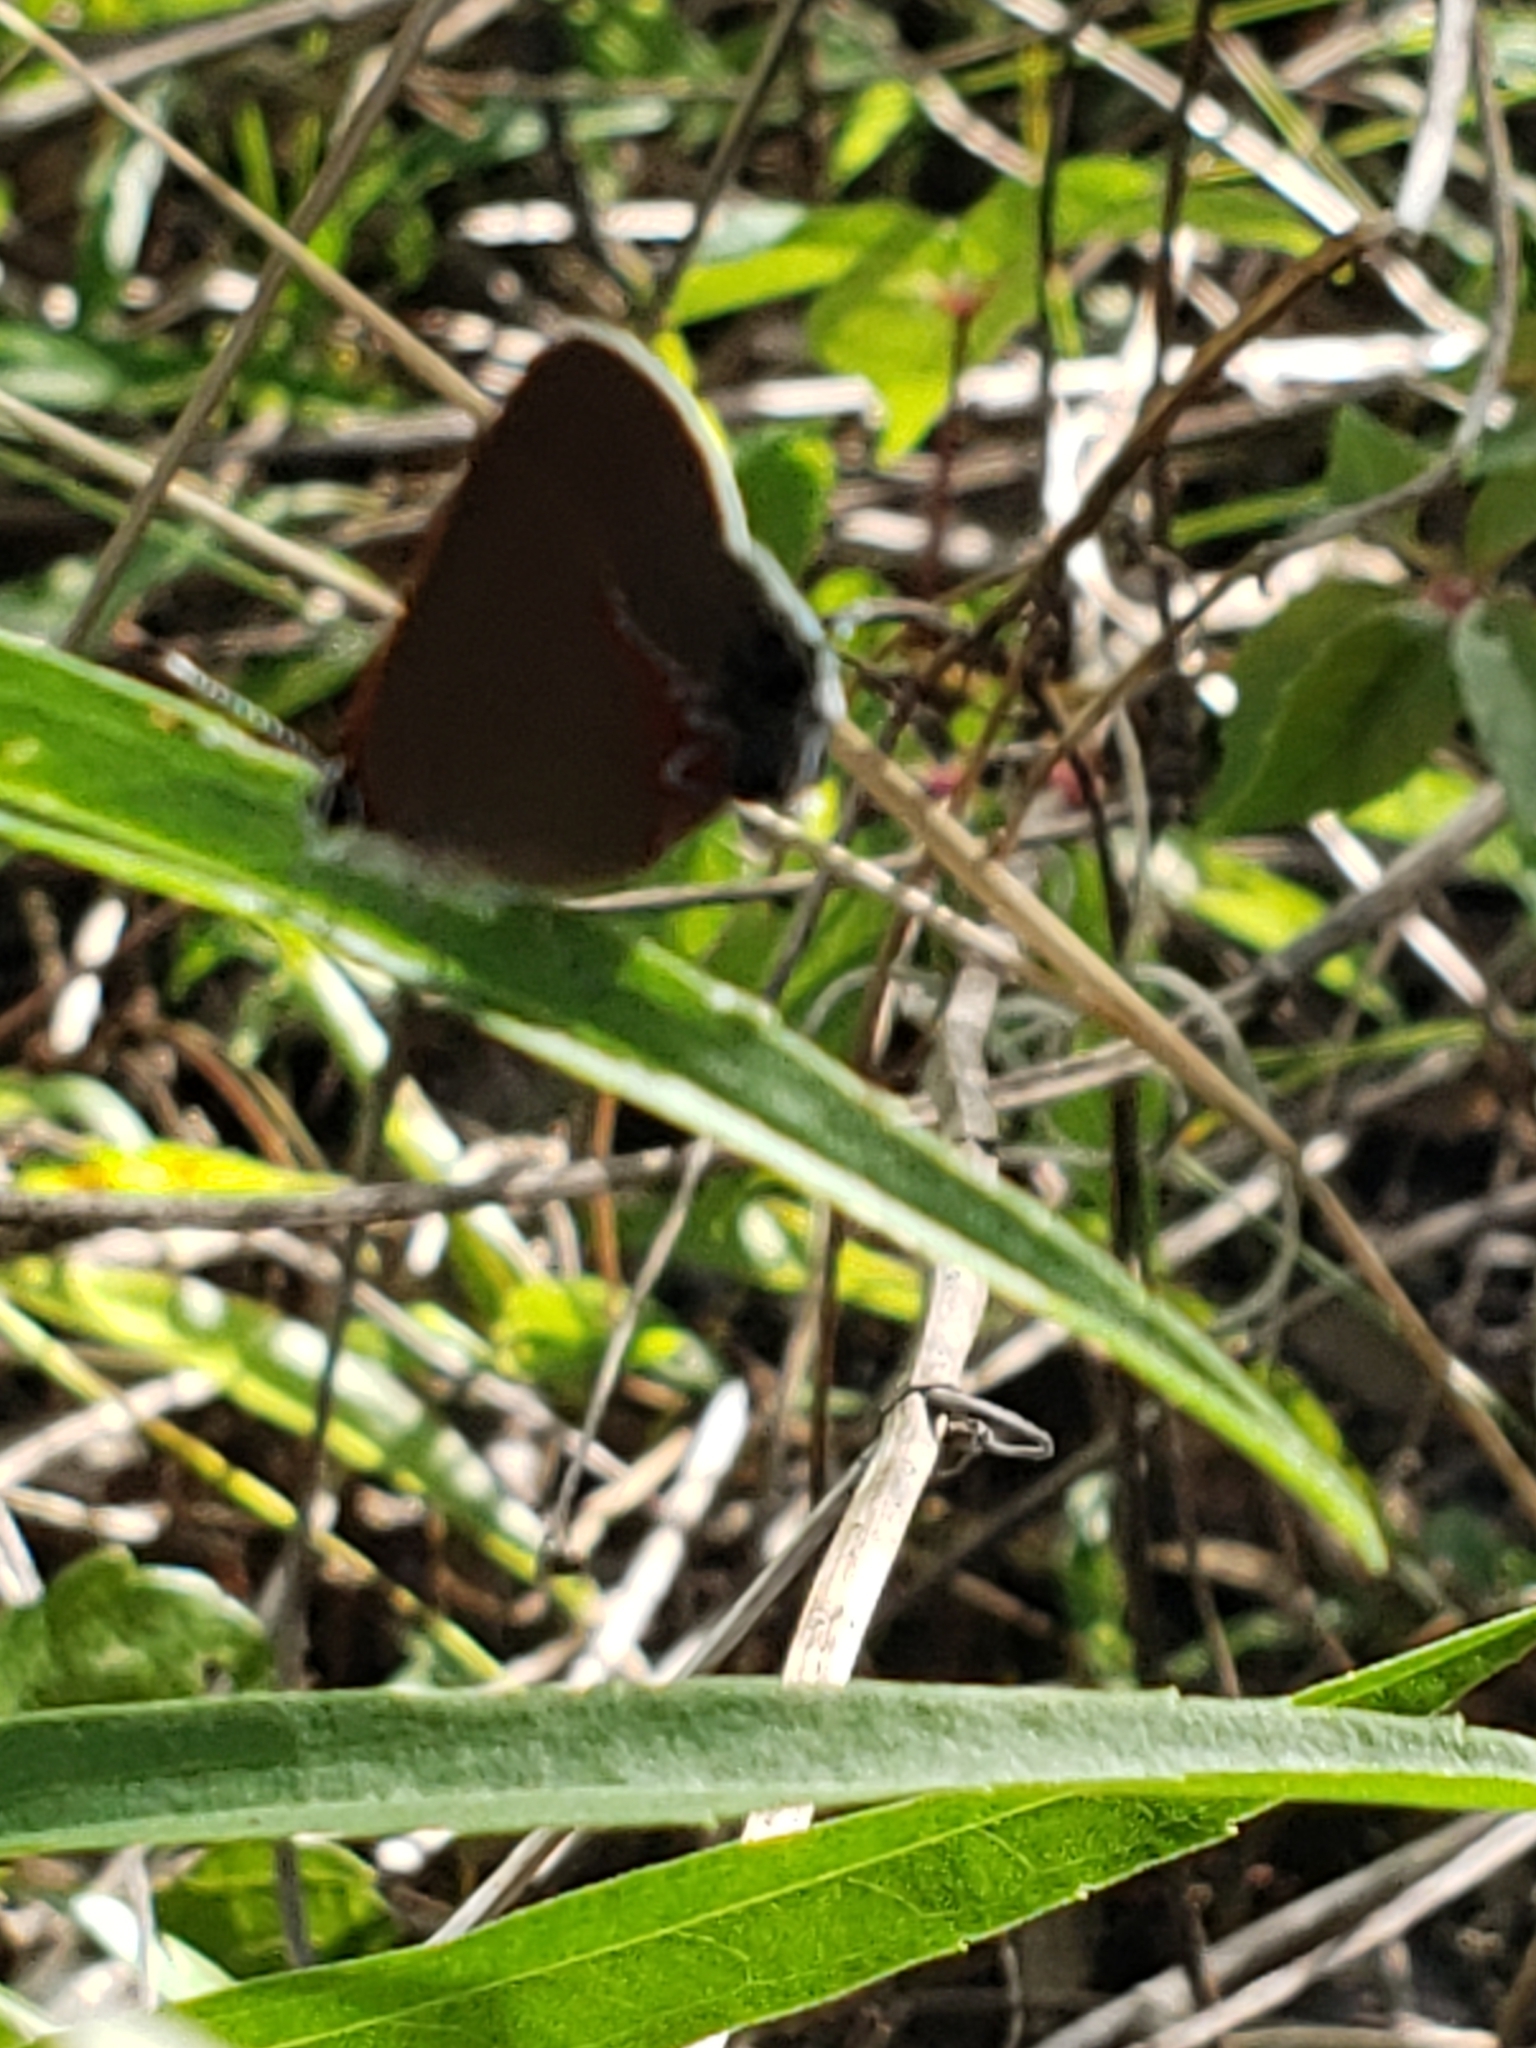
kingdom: Animalia
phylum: Arthropoda
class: Insecta
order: Lepidoptera
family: Lycaenidae
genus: Calycopis
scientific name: Calycopis cecrops
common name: Red-banded hairstreak
